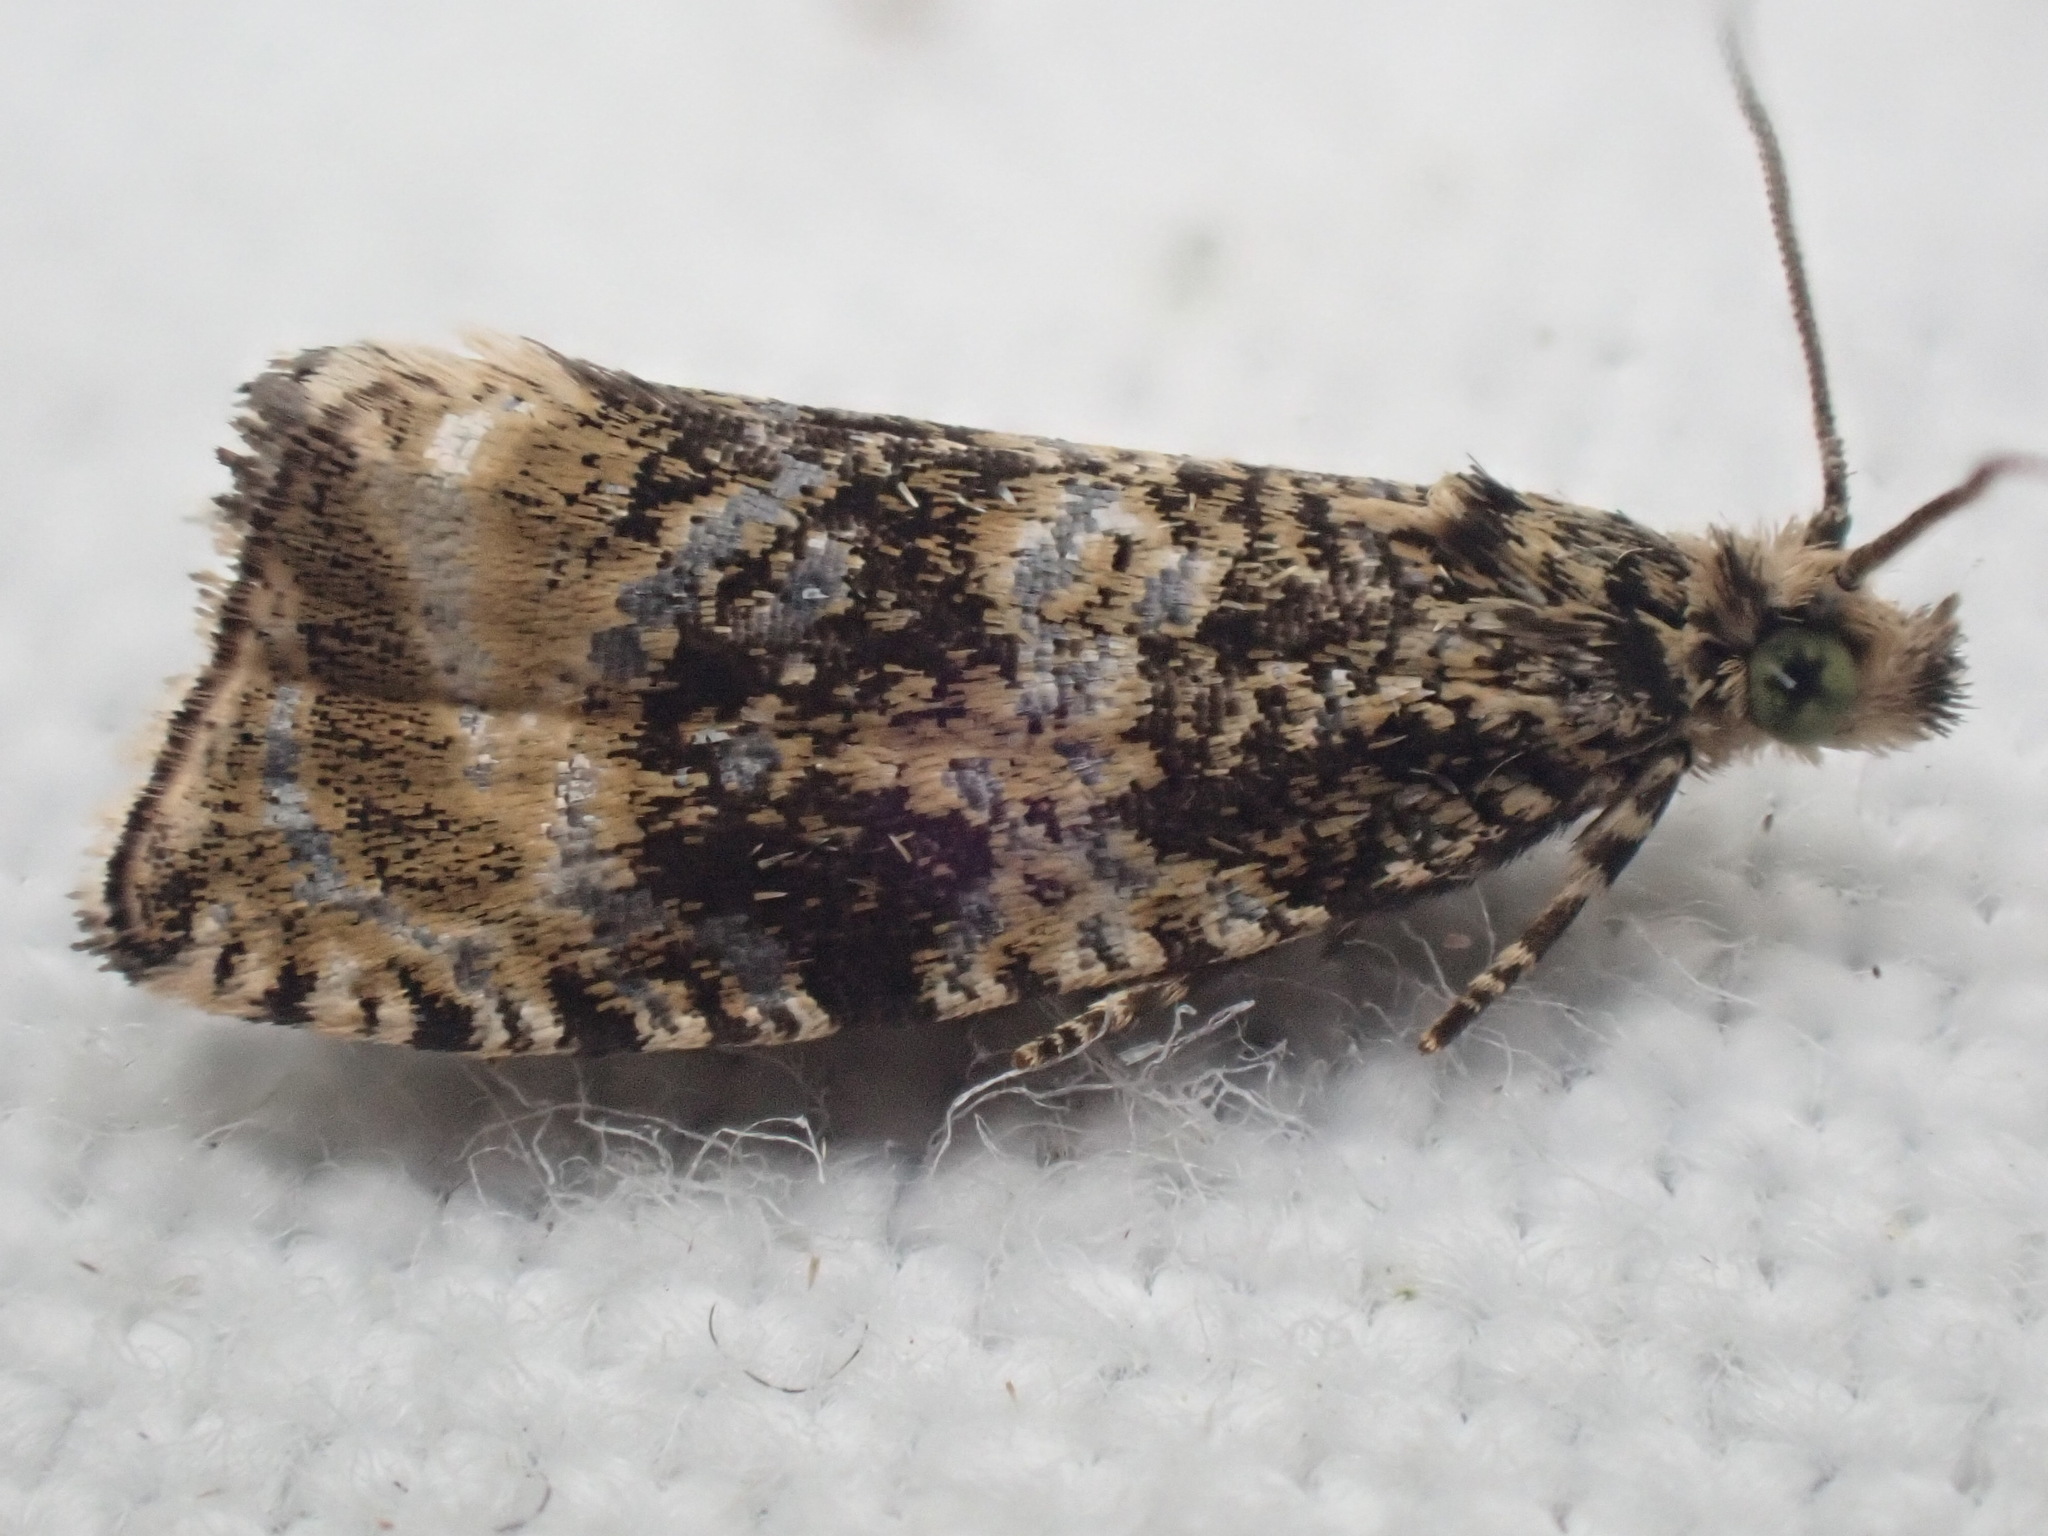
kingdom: Animalia
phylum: Arthropoda
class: Insecta
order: Lepidoptera
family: Tortricidae
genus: Syricoris
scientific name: Syricoris lacunana
